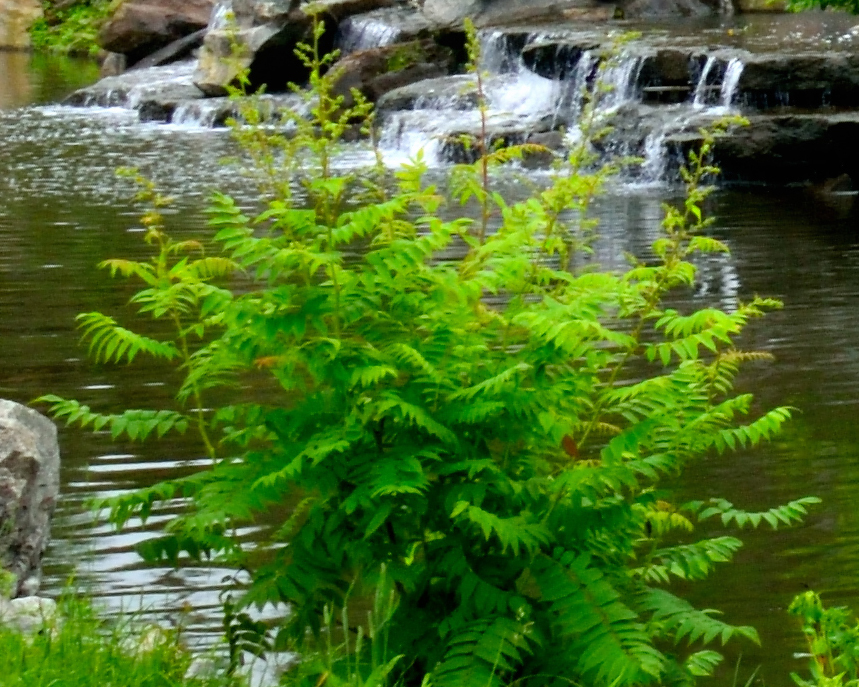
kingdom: Plantae
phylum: Tracheophyta
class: Magnoliopsida
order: Rosales
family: Rosaceae
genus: Sorbaria
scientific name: Sorbaria sorbifolia
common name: False spiraea
